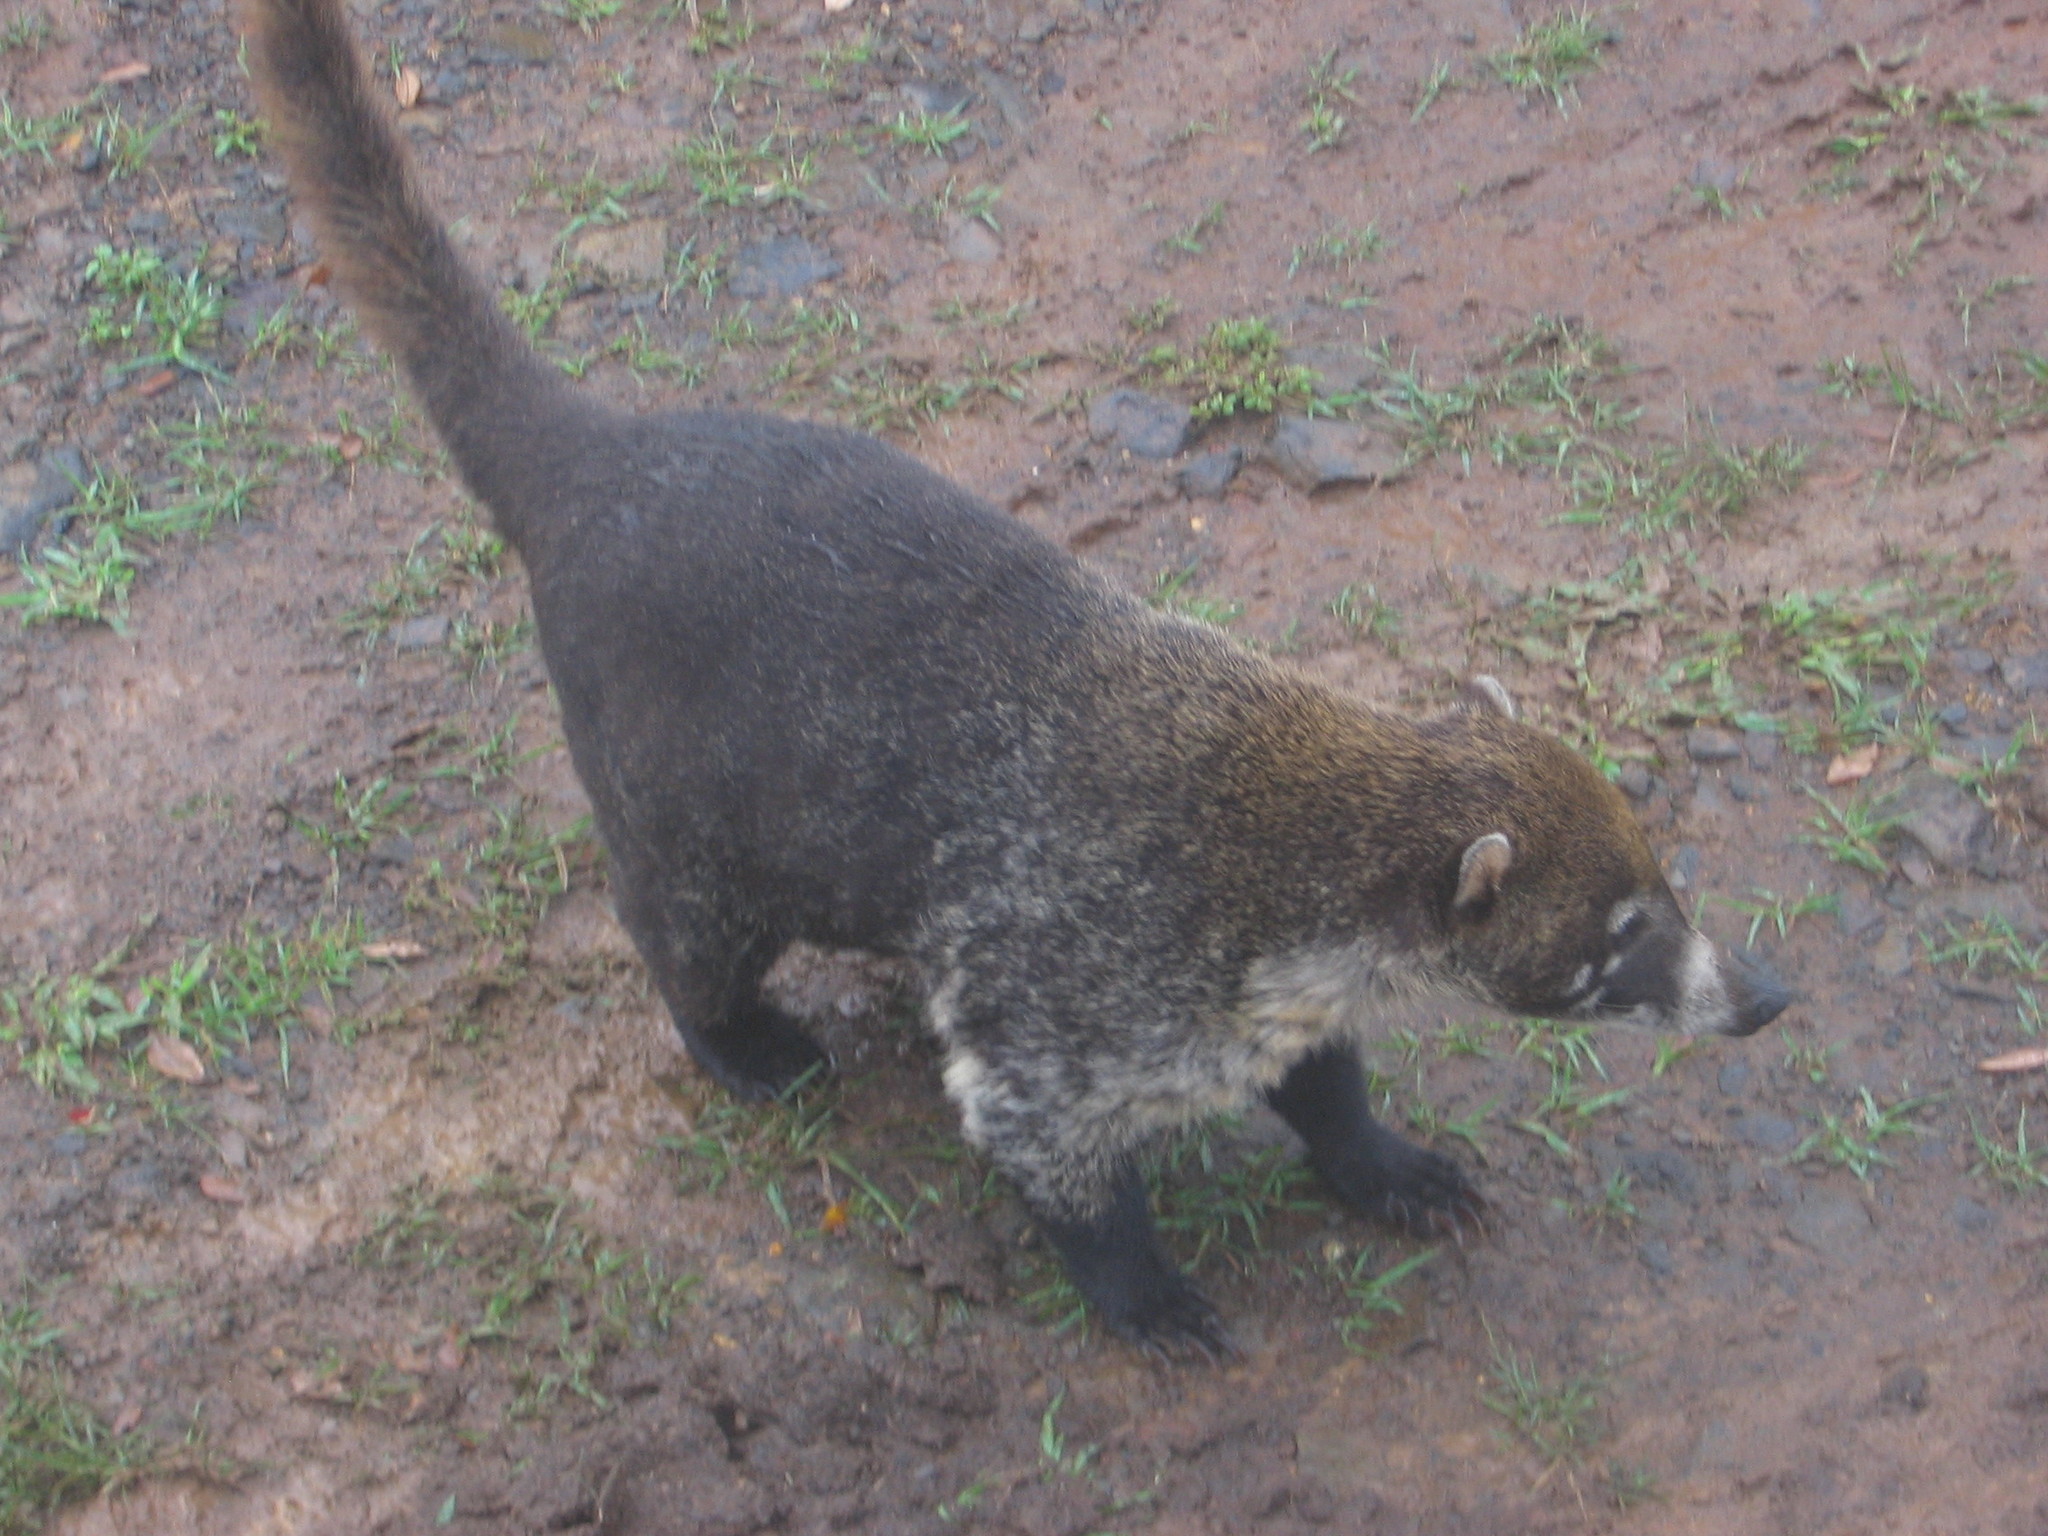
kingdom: Animalia
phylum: Chordata
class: Mammalia
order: Carnivora
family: Procyonidae
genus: Nasua
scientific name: Nasua narica
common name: White-nosed coati
